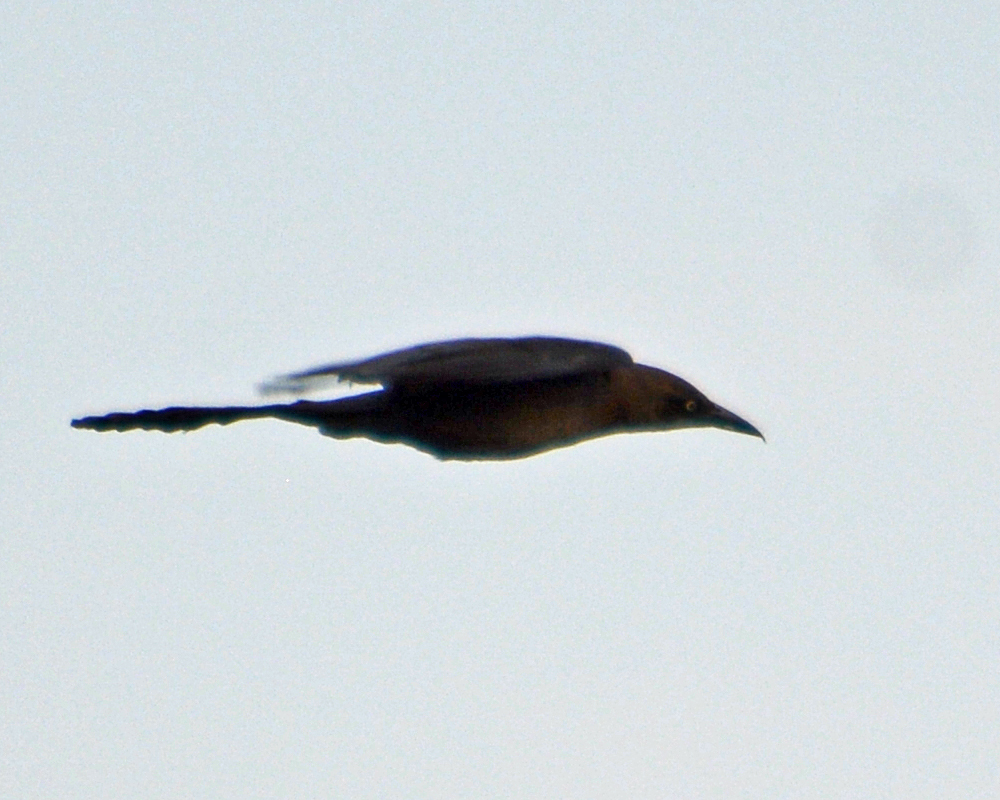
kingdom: Animalia
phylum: Chordata
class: Aves
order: Passeriformes
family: Icteridae
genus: Quiscalus
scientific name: Quiscalus mexicanus
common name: Great-tailed grackle
